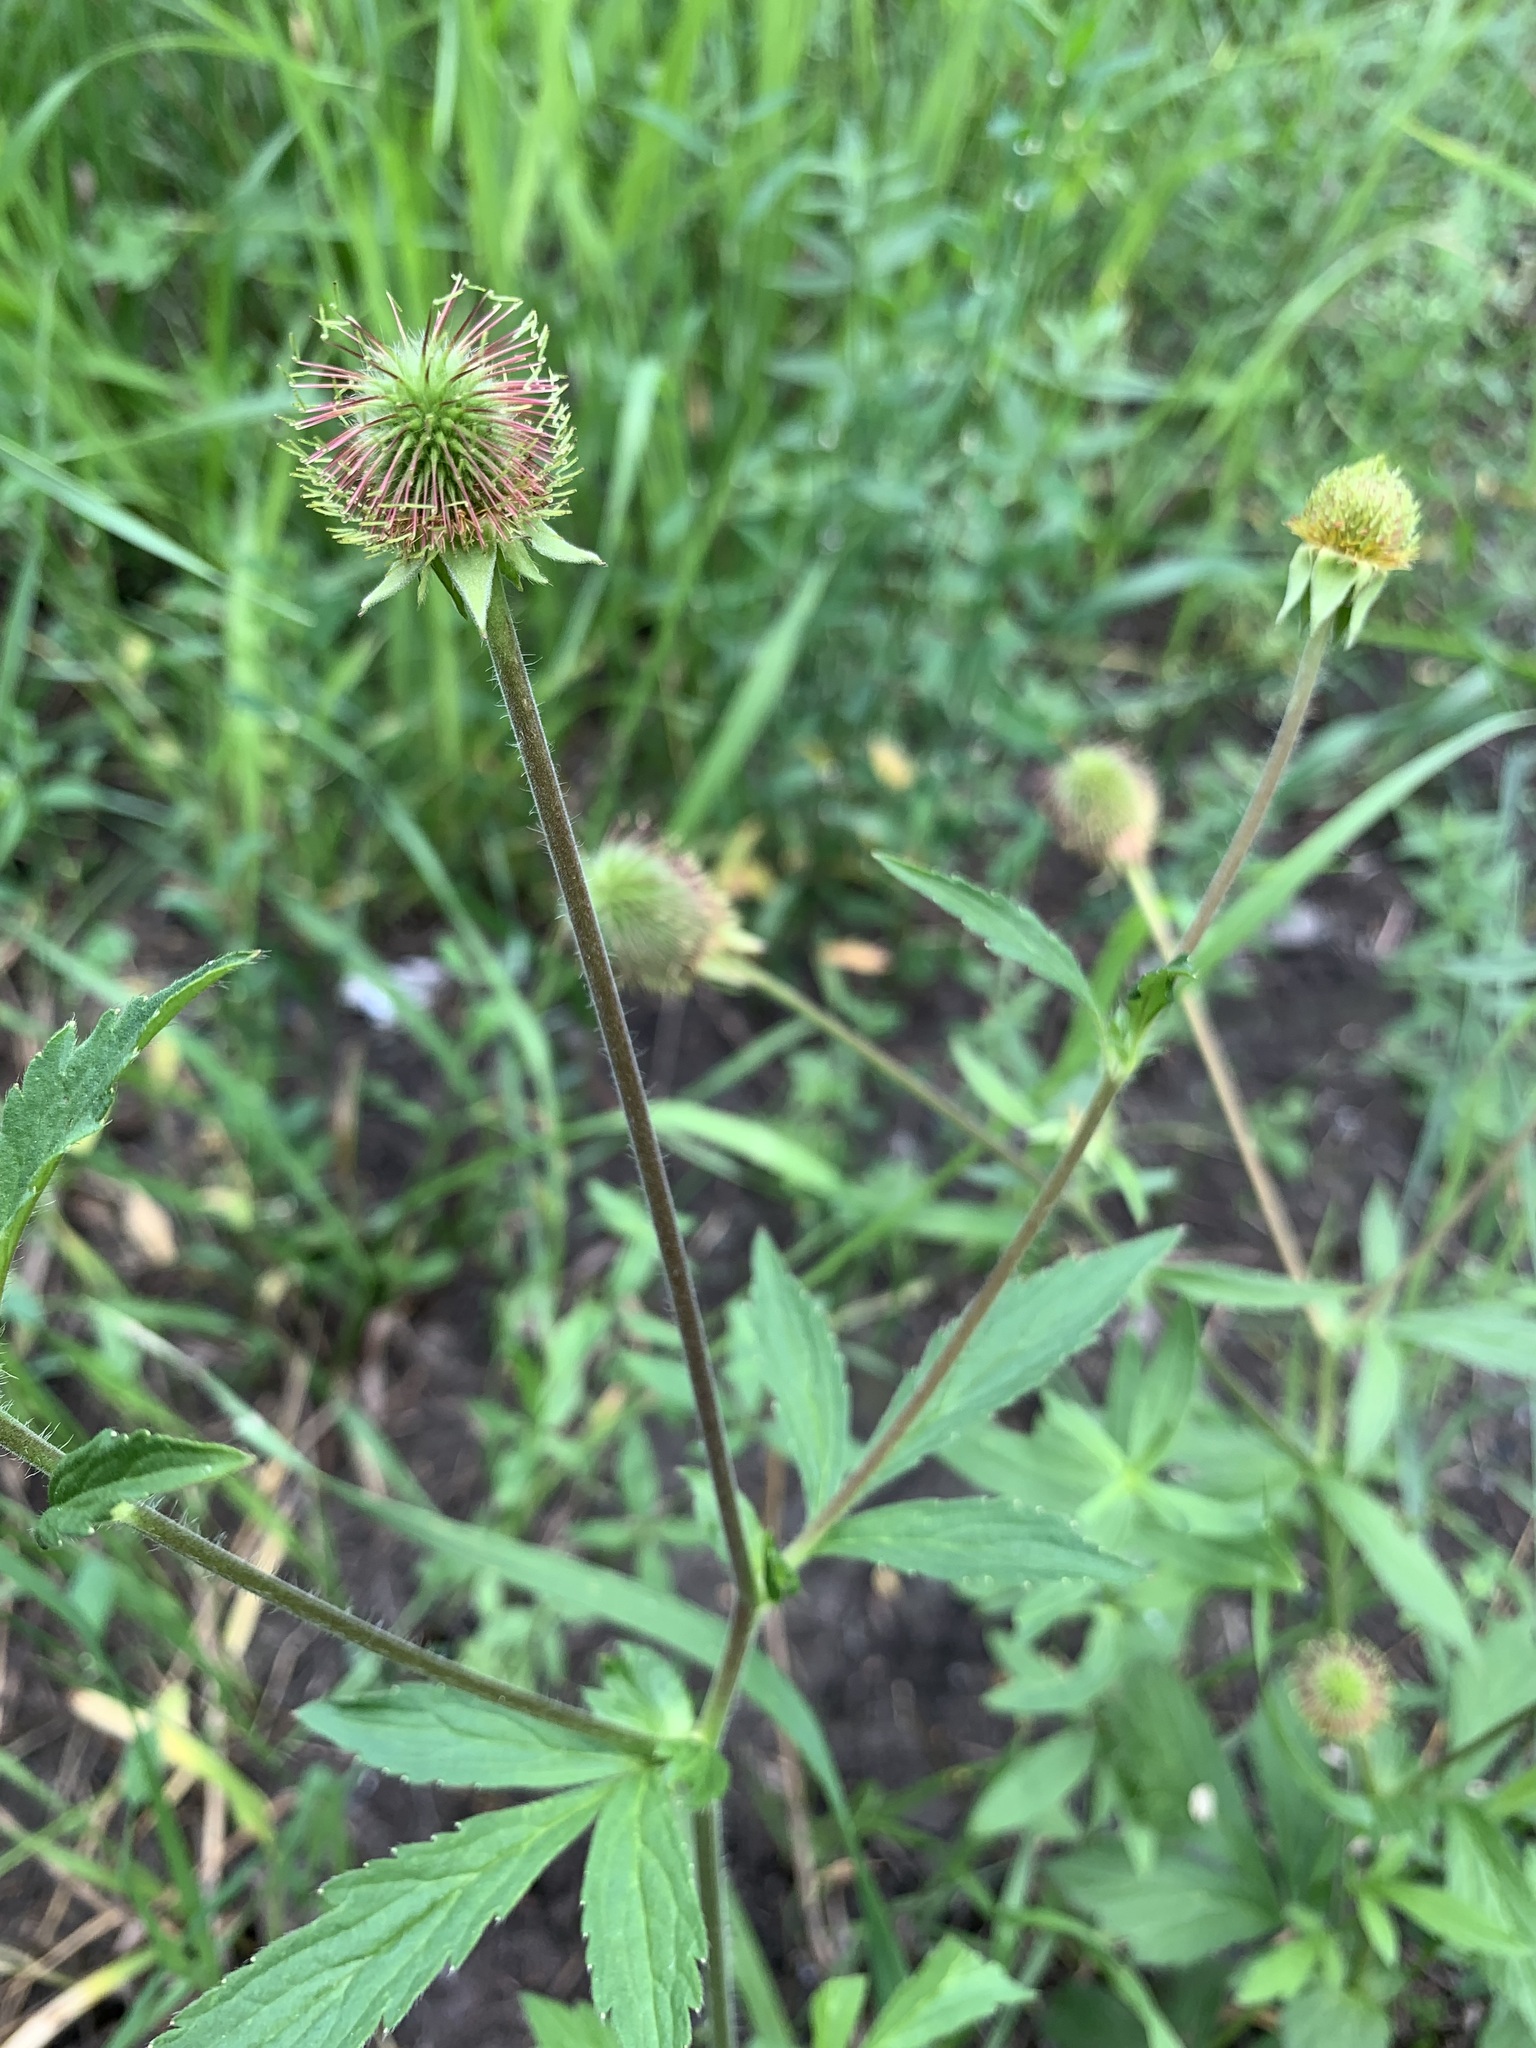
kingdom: Plantae
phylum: Tracheophyta
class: Magnoliopsida
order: Rosales
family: Rosaceae
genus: Geum
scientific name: Geum aleppicum
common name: Yellow avens
